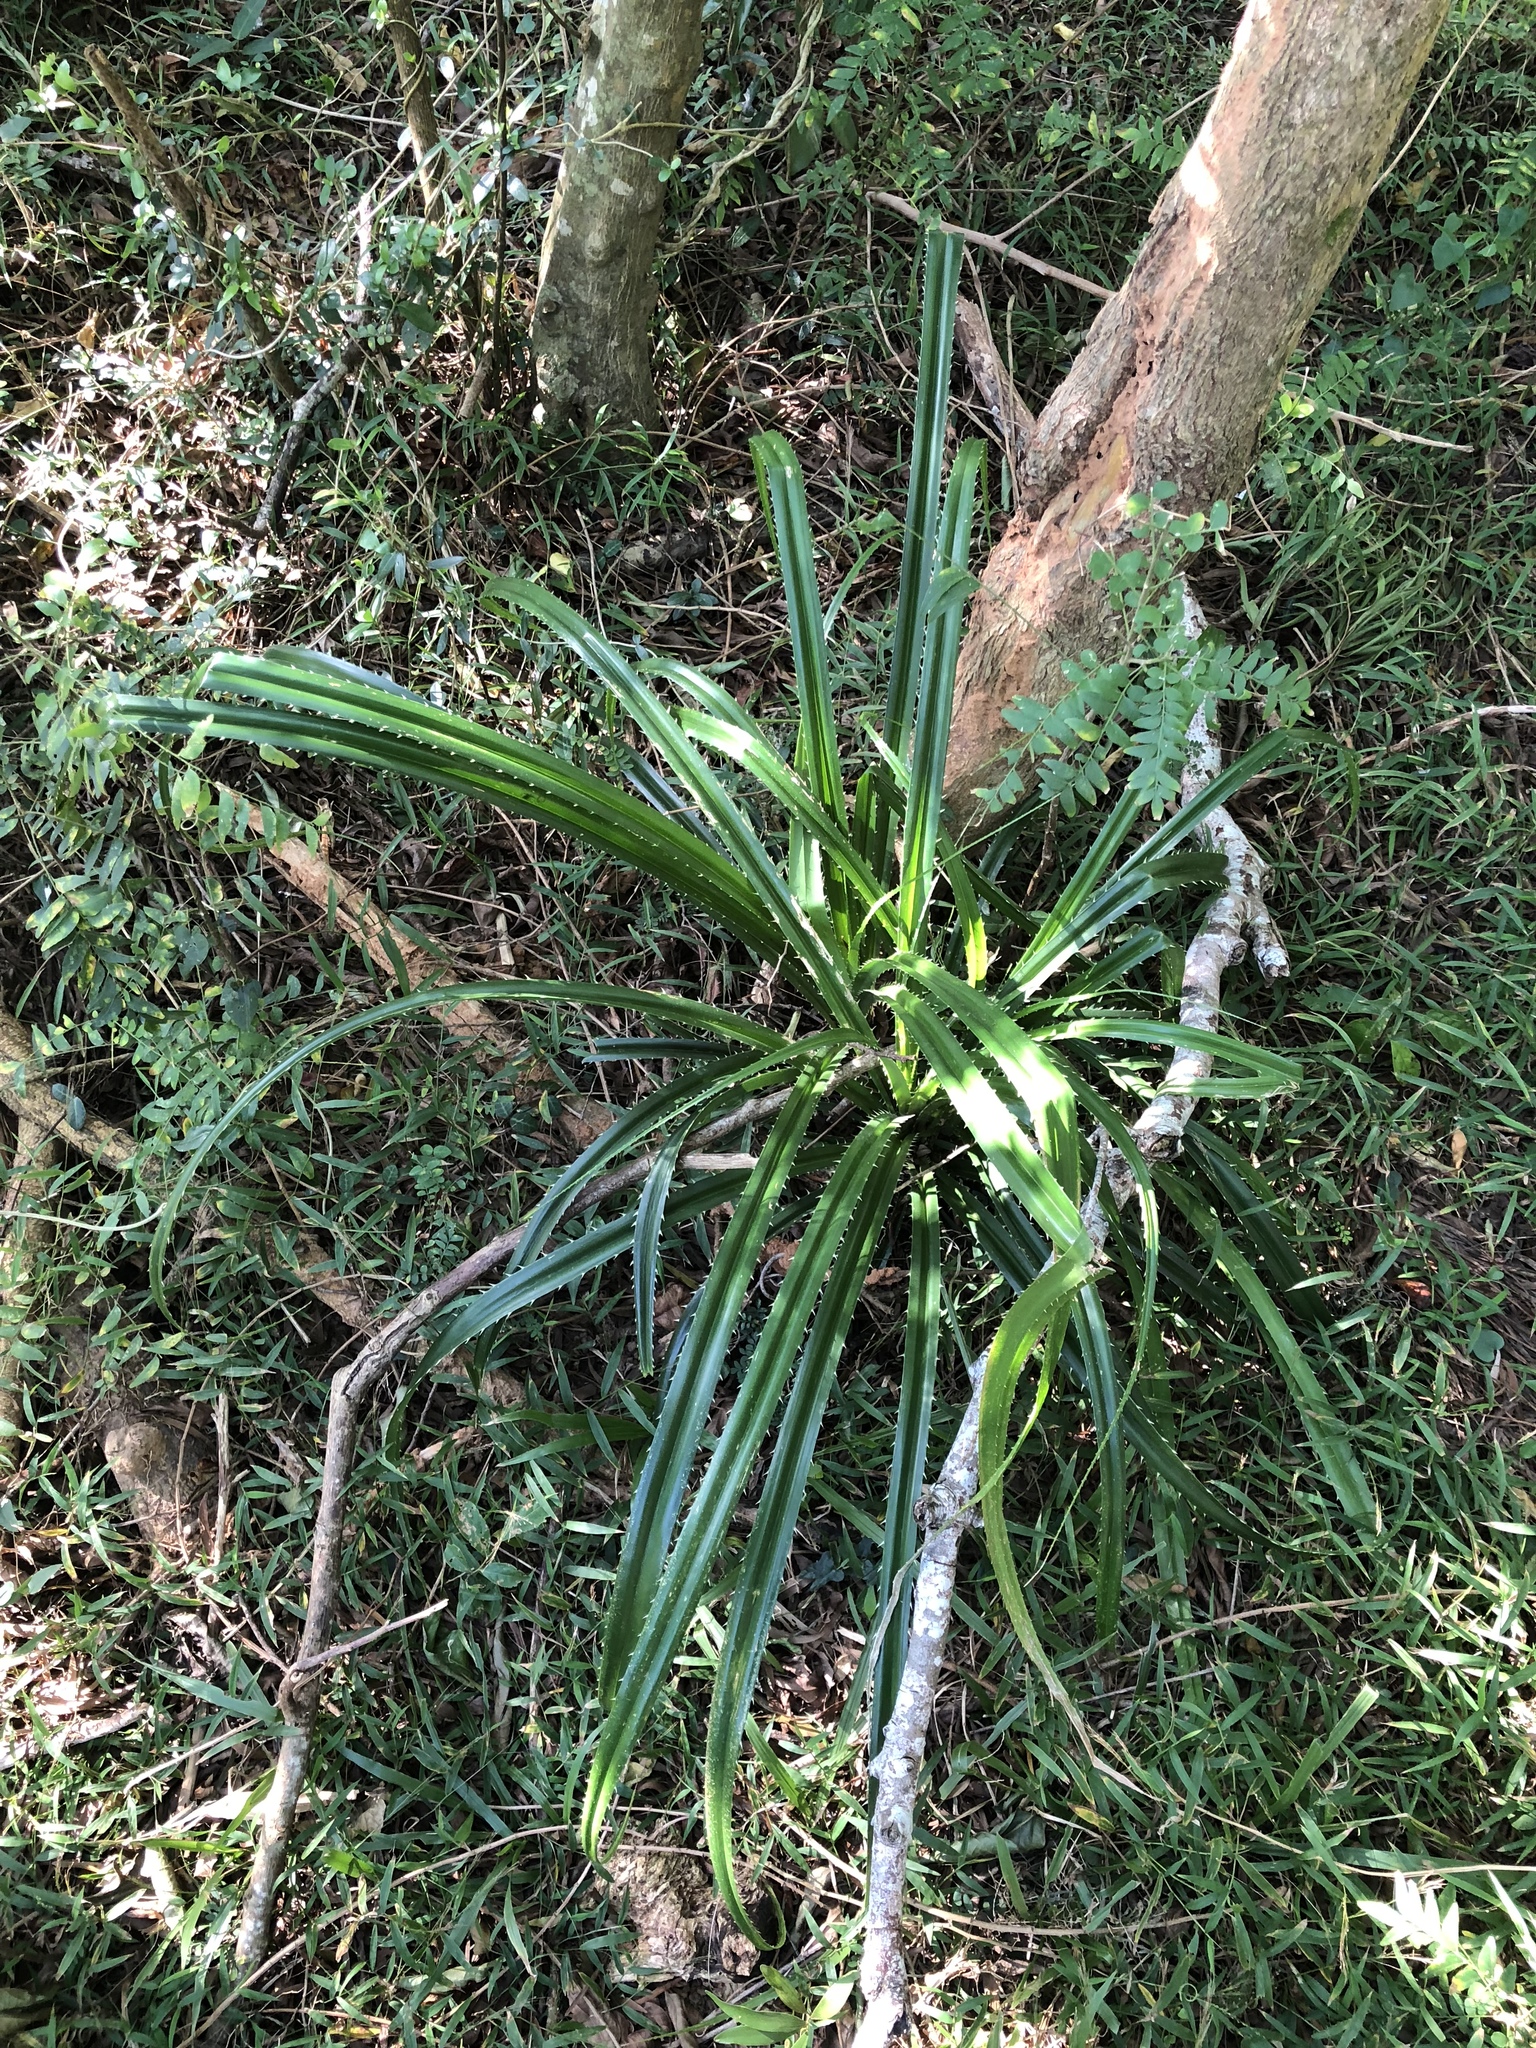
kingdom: Plantae
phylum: Tracheophyta
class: Liliopsida
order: Pandanales
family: Pandanaceae
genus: Pandanus
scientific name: Pandanus odorifer
